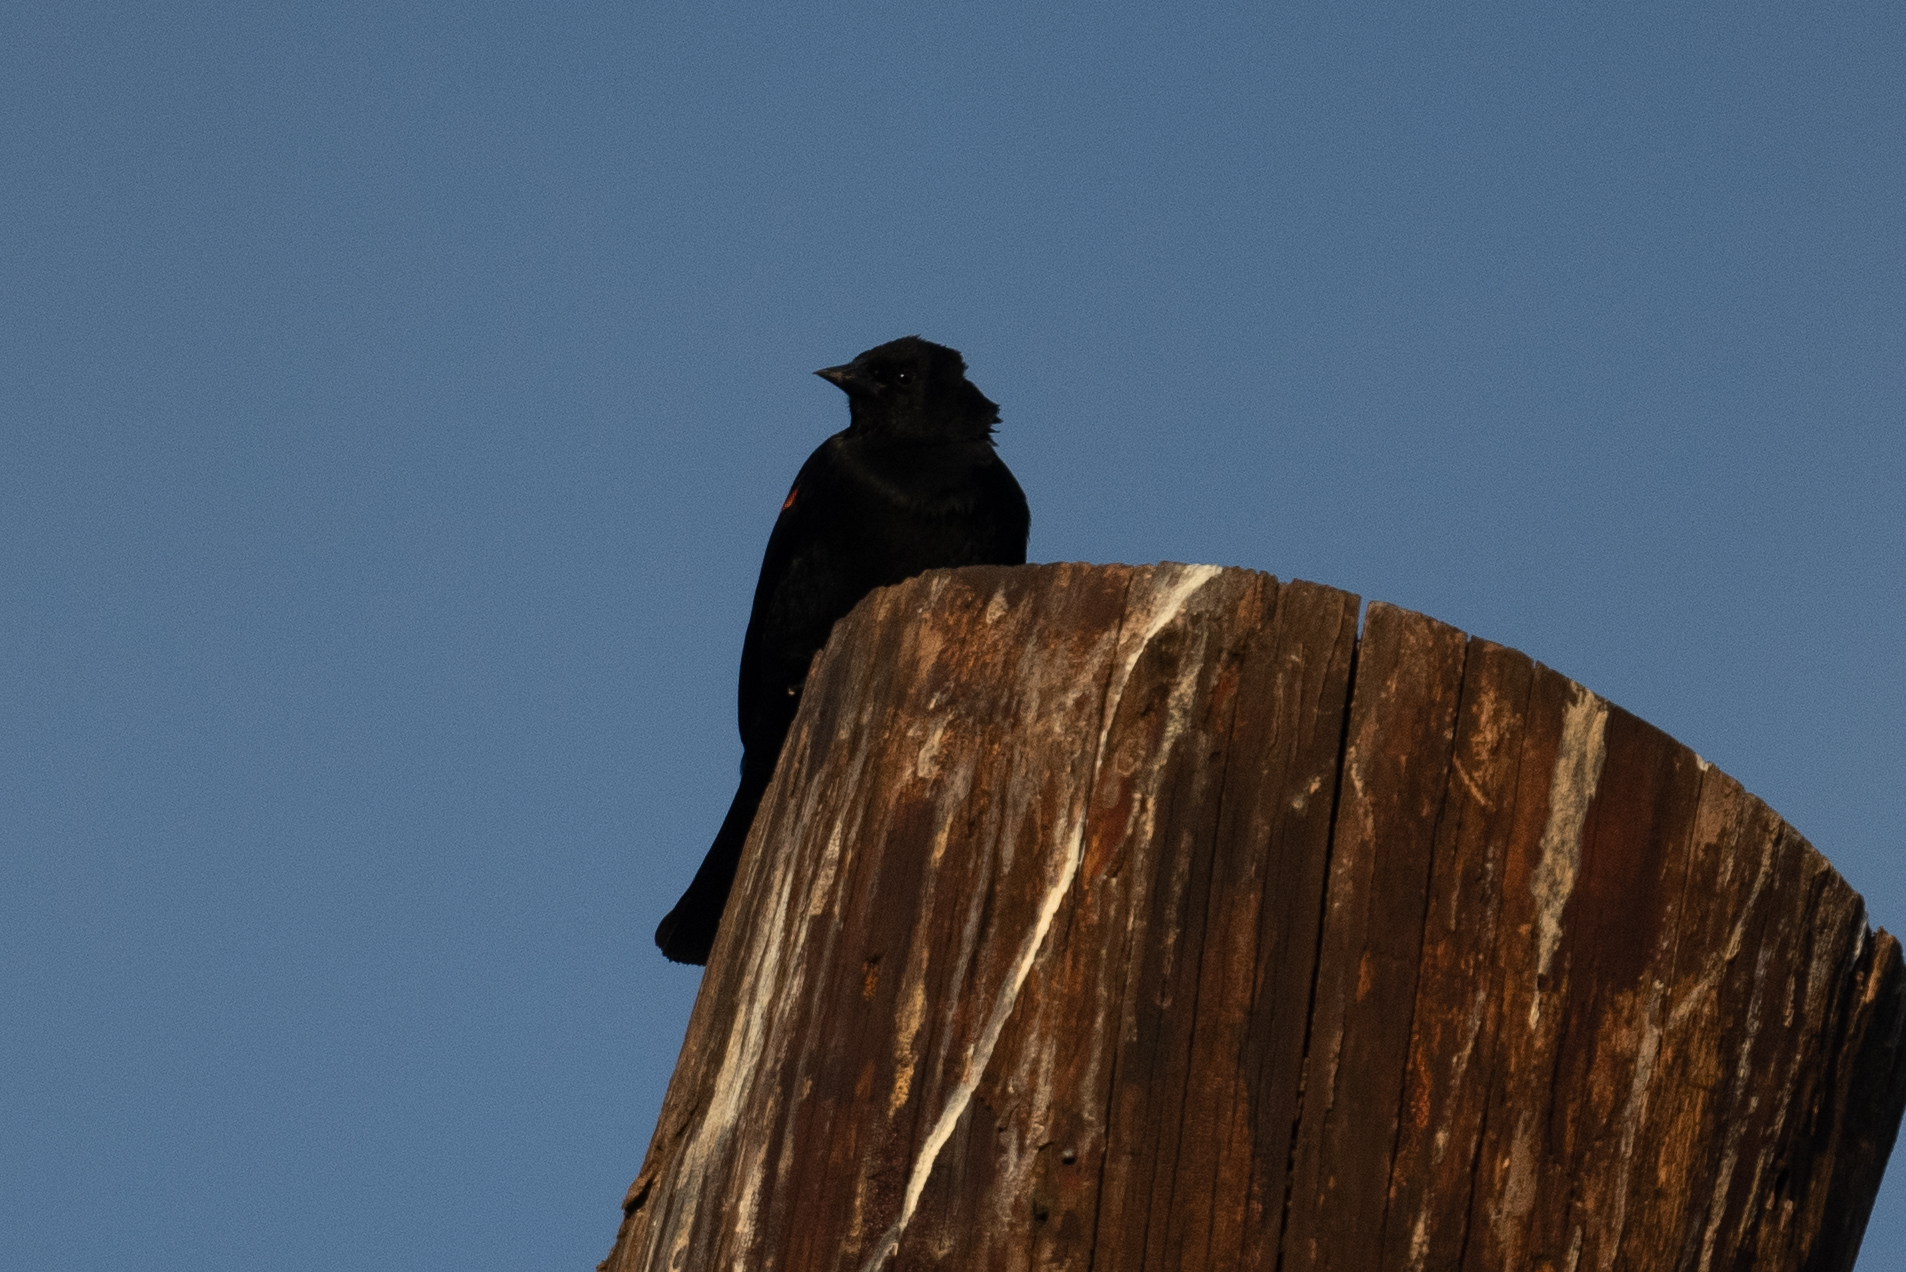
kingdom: Animalia
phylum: Chordata
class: Aves
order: Passeriformes
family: Icteridae
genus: Agelaius
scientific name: Agelaius phoeniceus
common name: Red-winged blackbird
